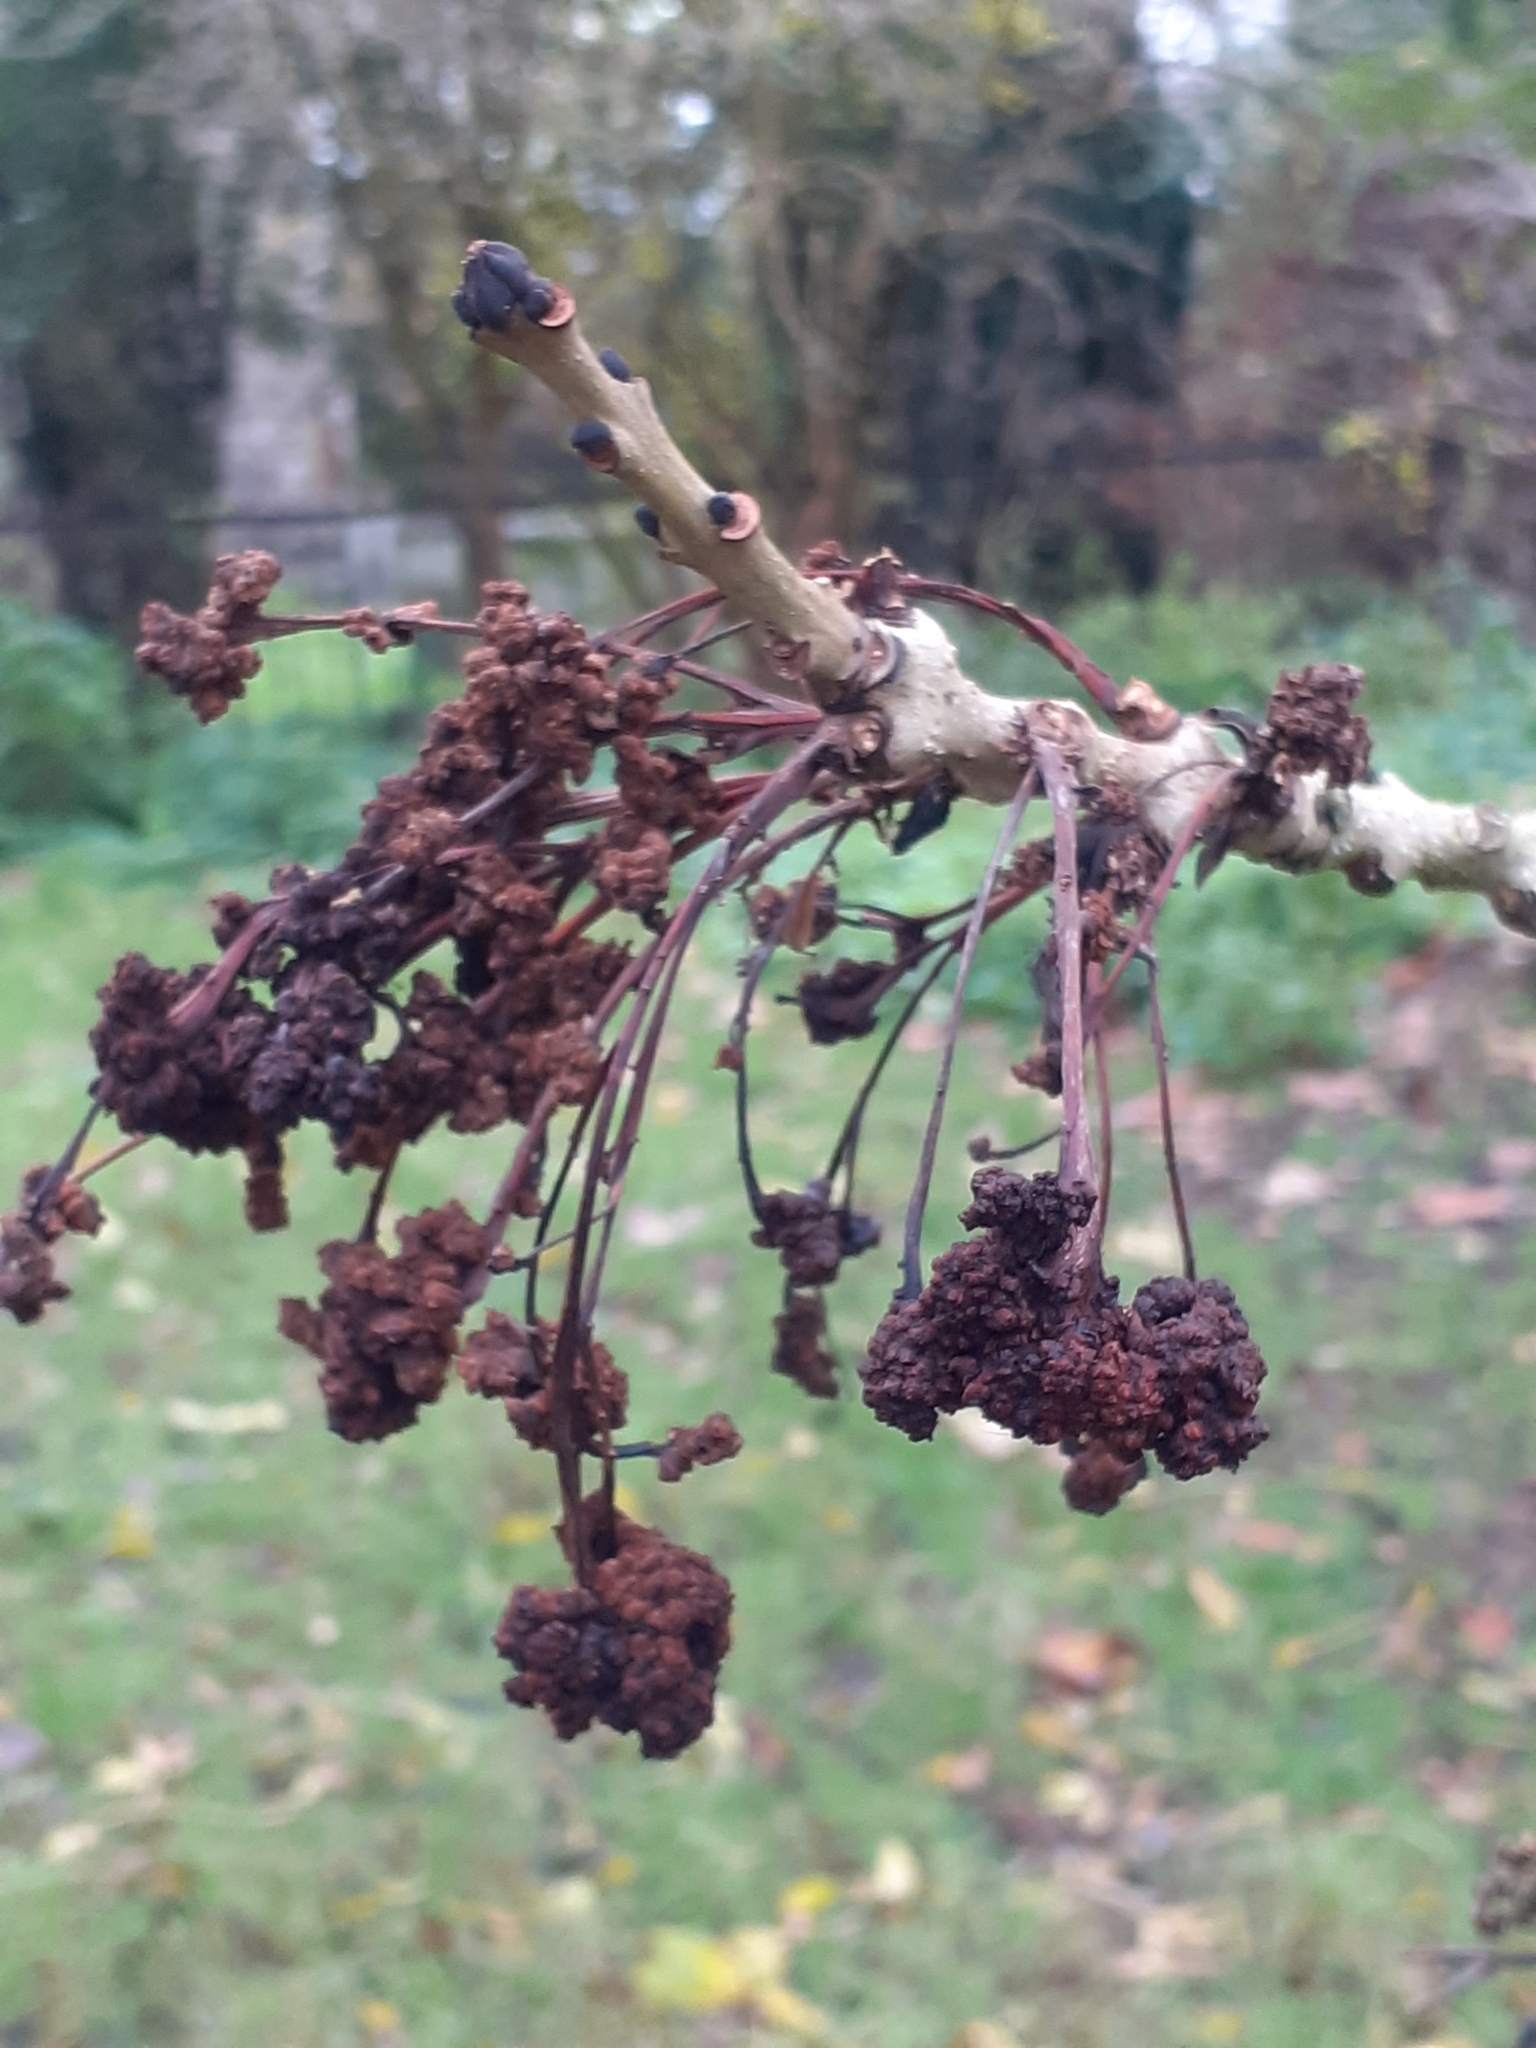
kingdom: Animalia
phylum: Arthropoda
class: Arachnida
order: Trombidiformes
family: Eriophyidae
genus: Aceria
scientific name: Aceria fraxinivora
